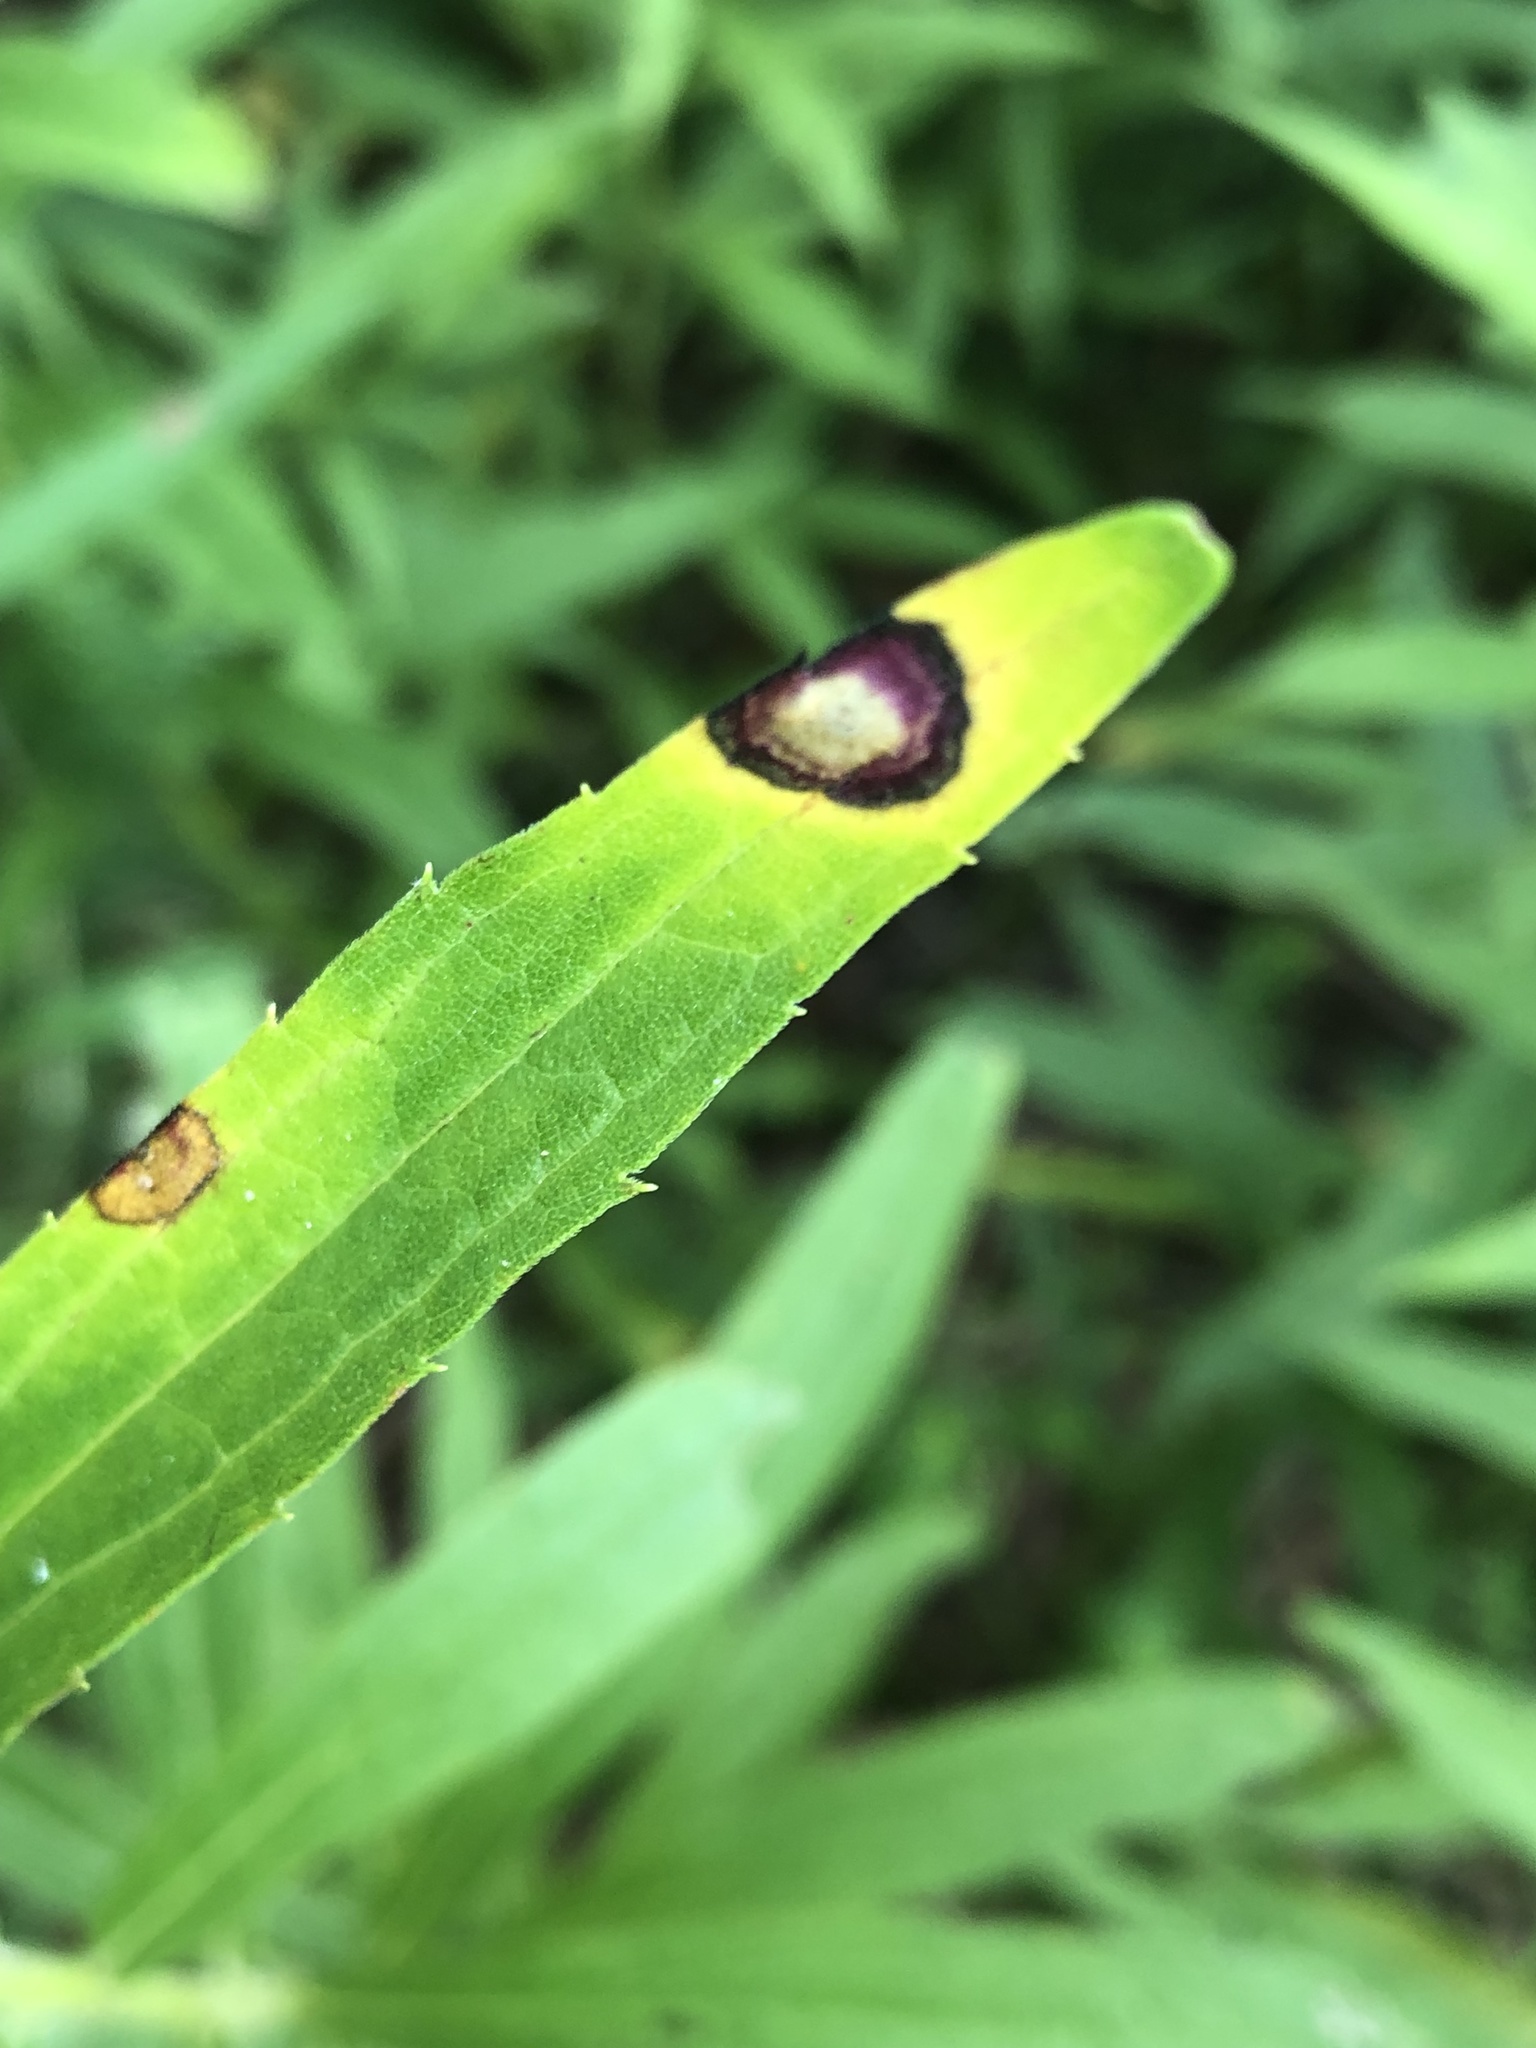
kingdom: Animalia
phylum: Arthropoda
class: Insecta
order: Diptera
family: Cecidomyiidae
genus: Asteromyia
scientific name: Asteromyia carbonifera
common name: Carbonifera goldenrod gall midge
